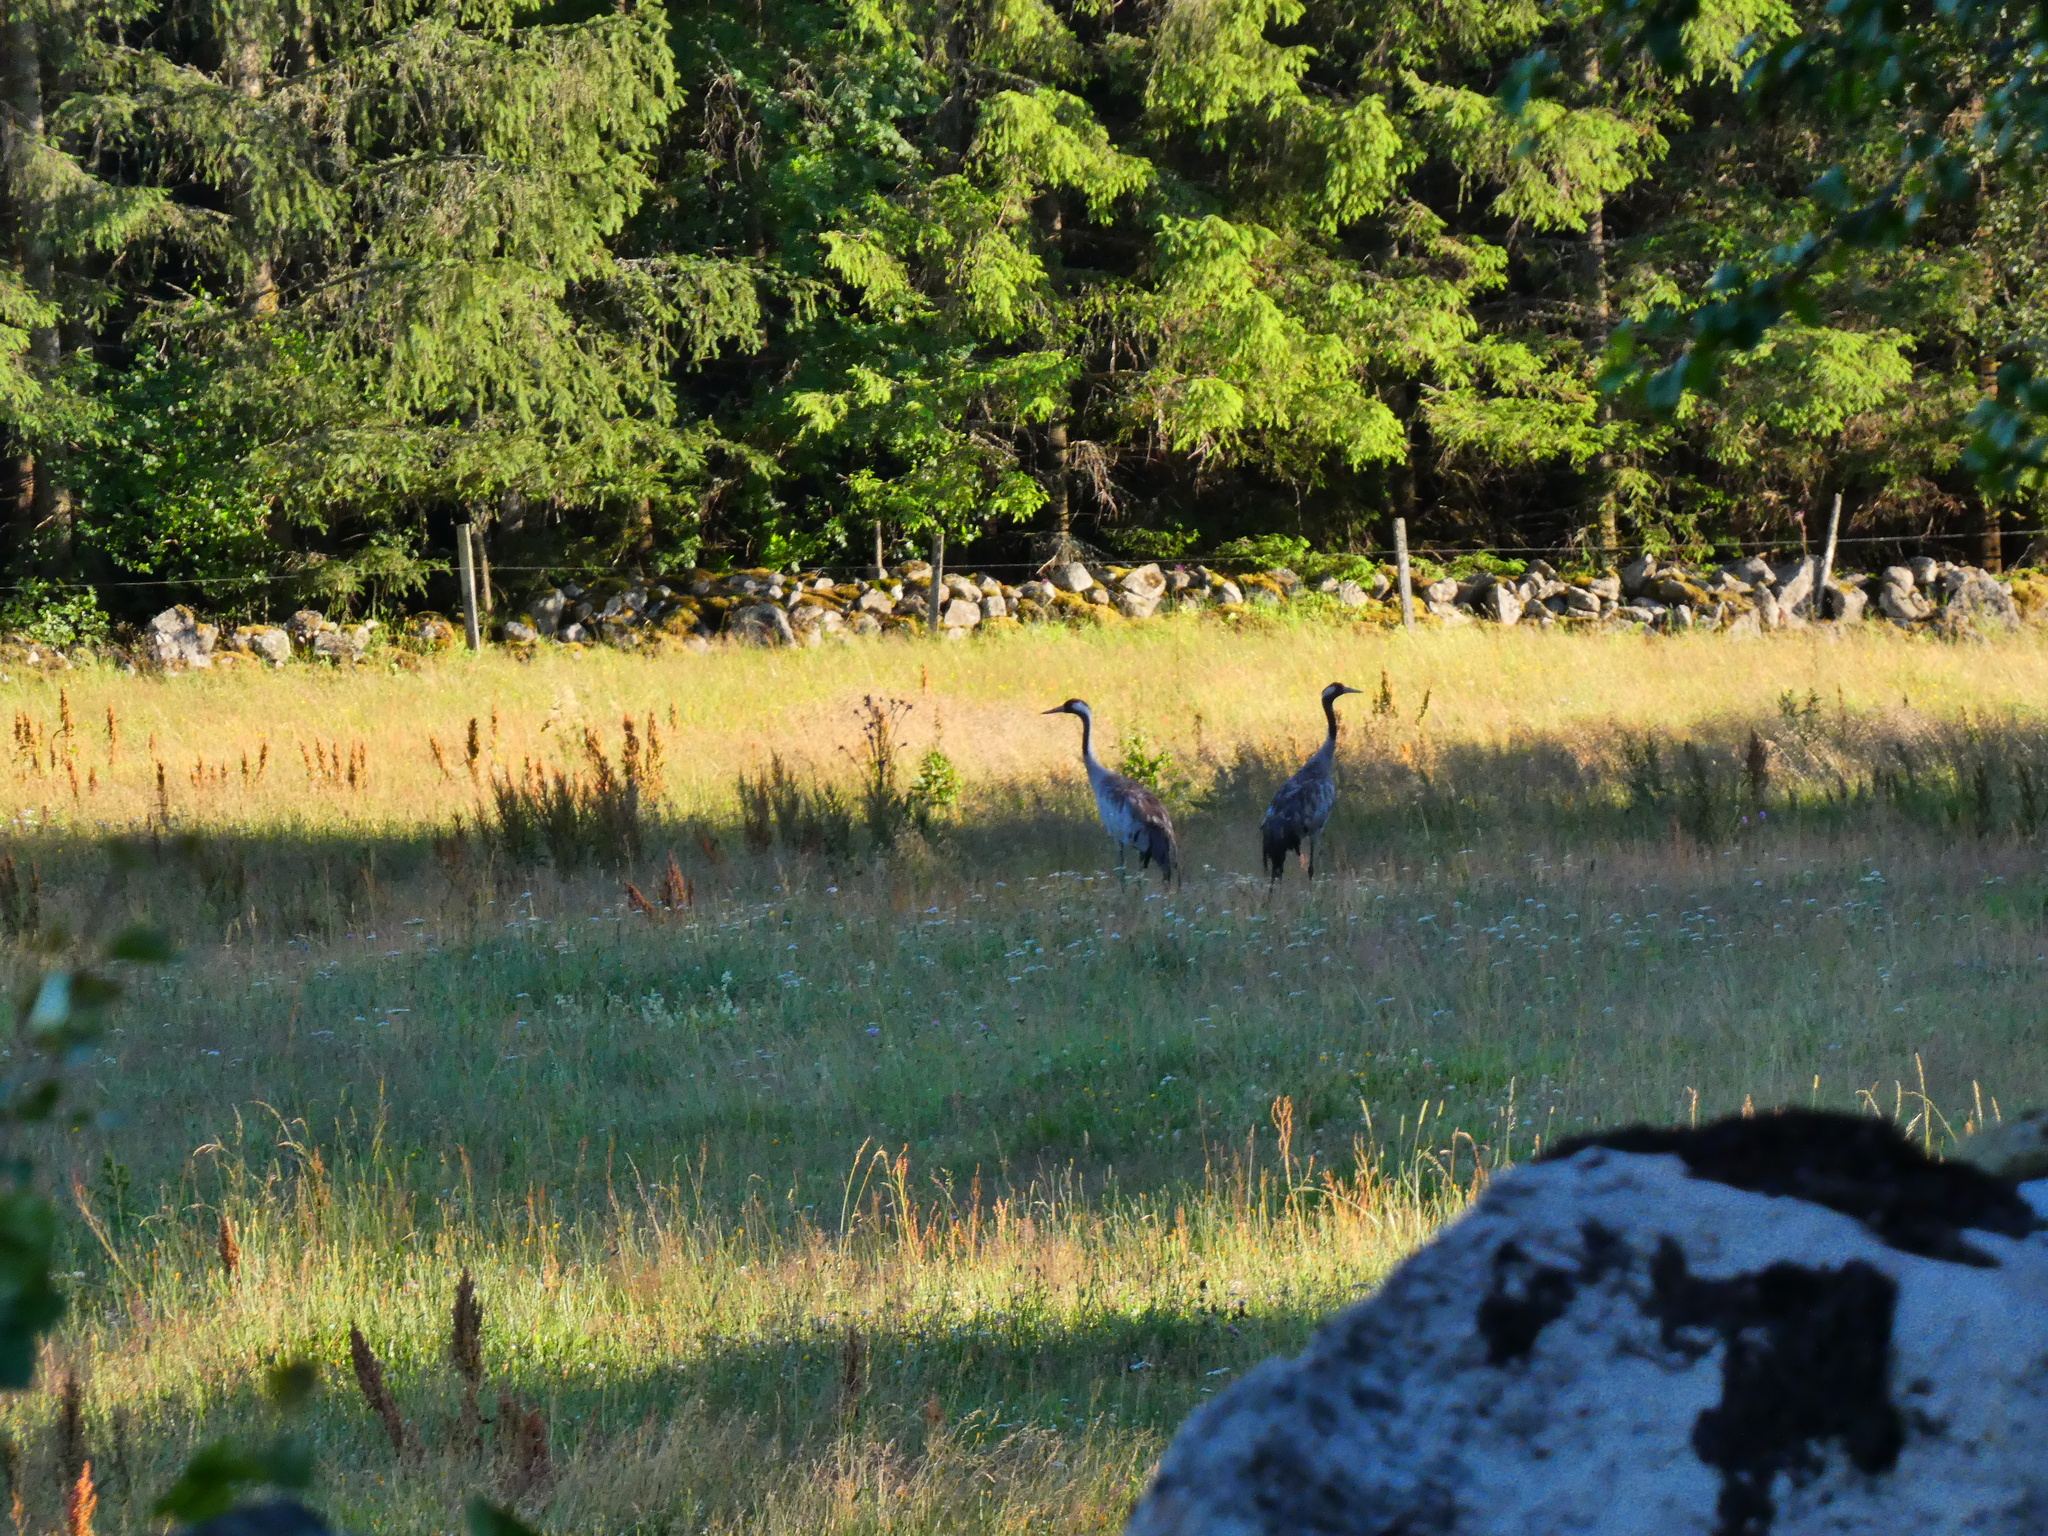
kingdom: Animalia
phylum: Chordata
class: Aves
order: Gruiformes
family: Gruidae
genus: Grus
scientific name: Grus grus
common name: Common crane
